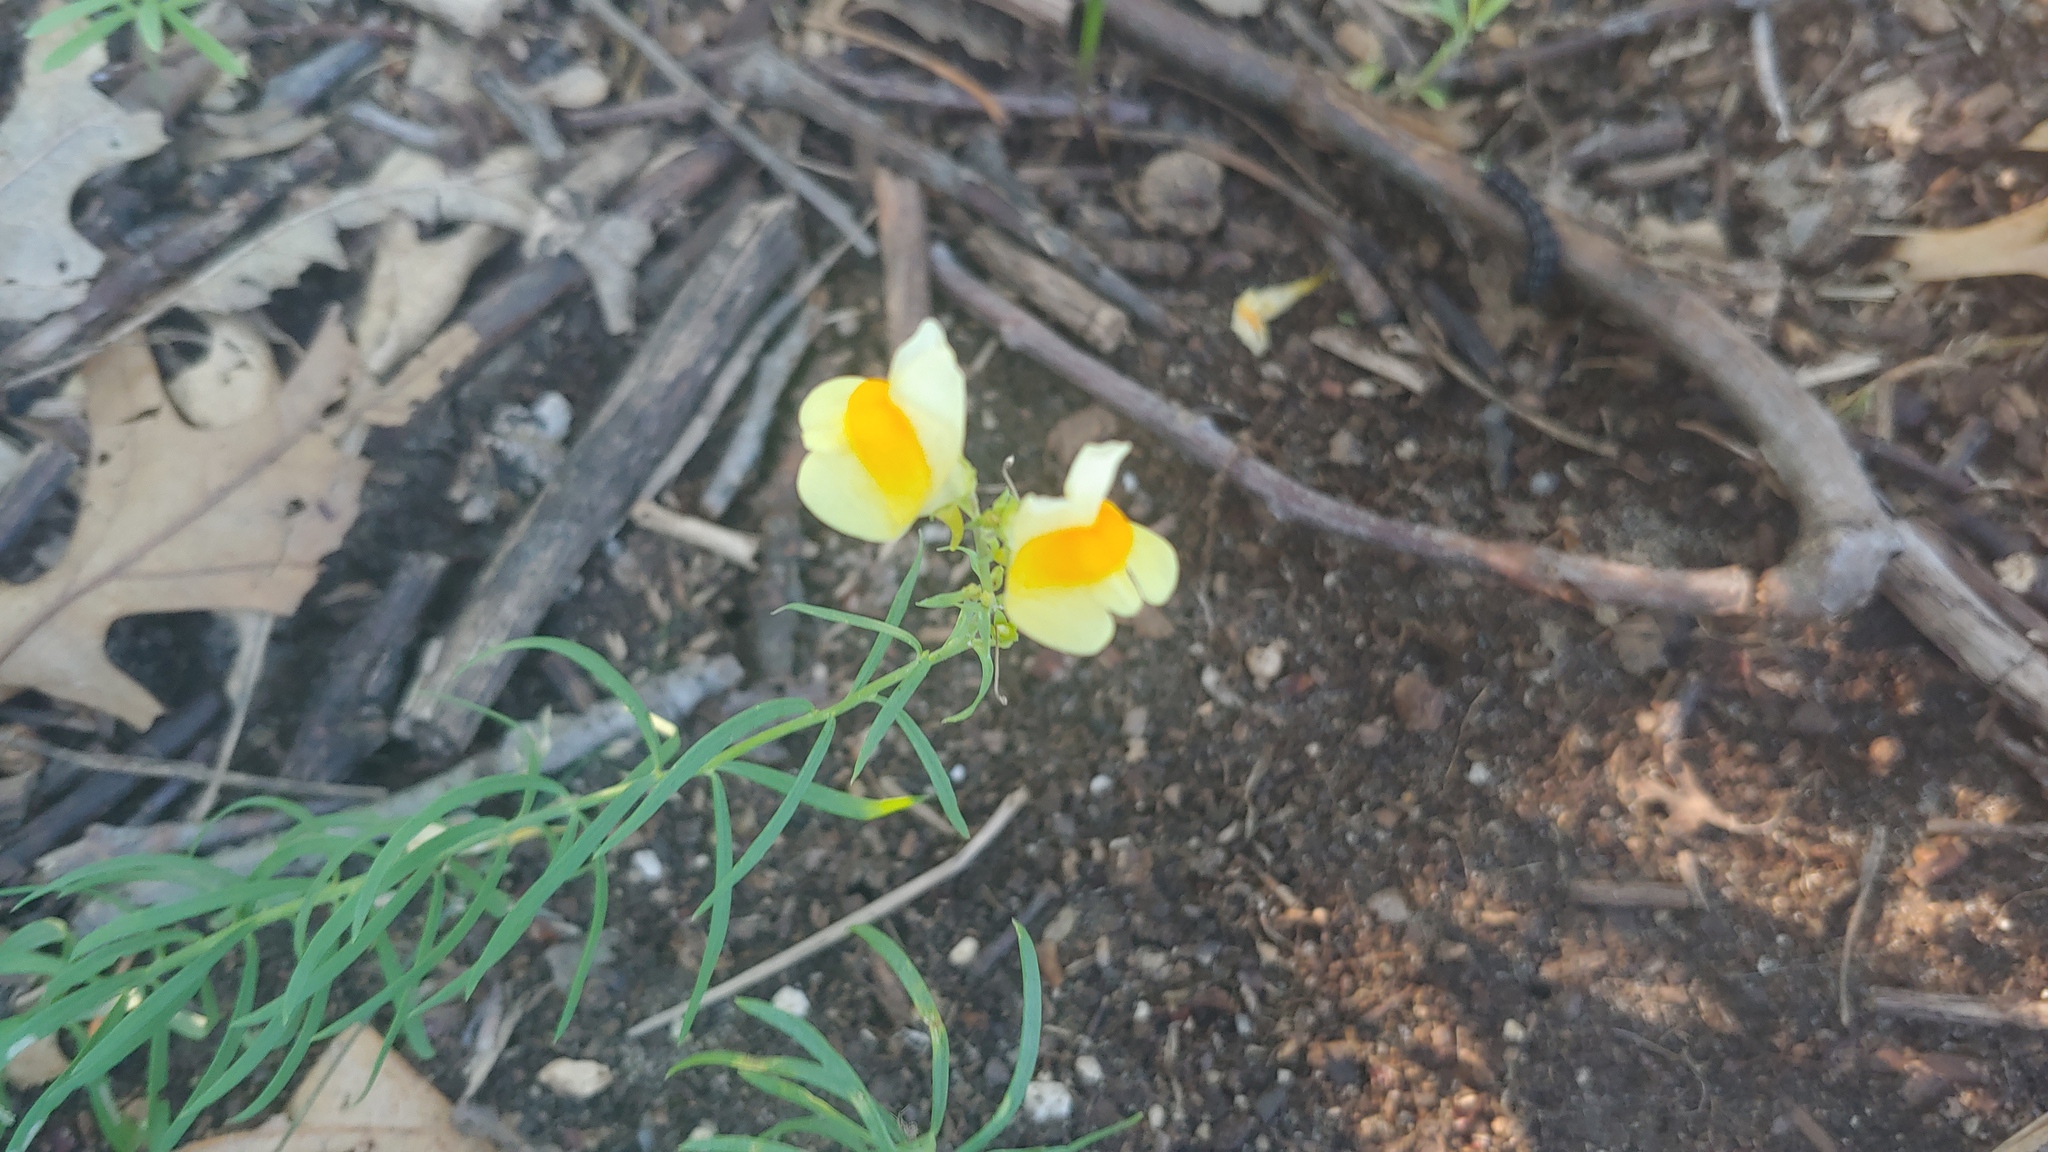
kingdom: Plantae
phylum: Tracheophyta
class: Magnoliopsida
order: Lamiales
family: Plantaginaceae
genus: Linaria
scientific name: Linaria vulgaris
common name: Butter and eggs
